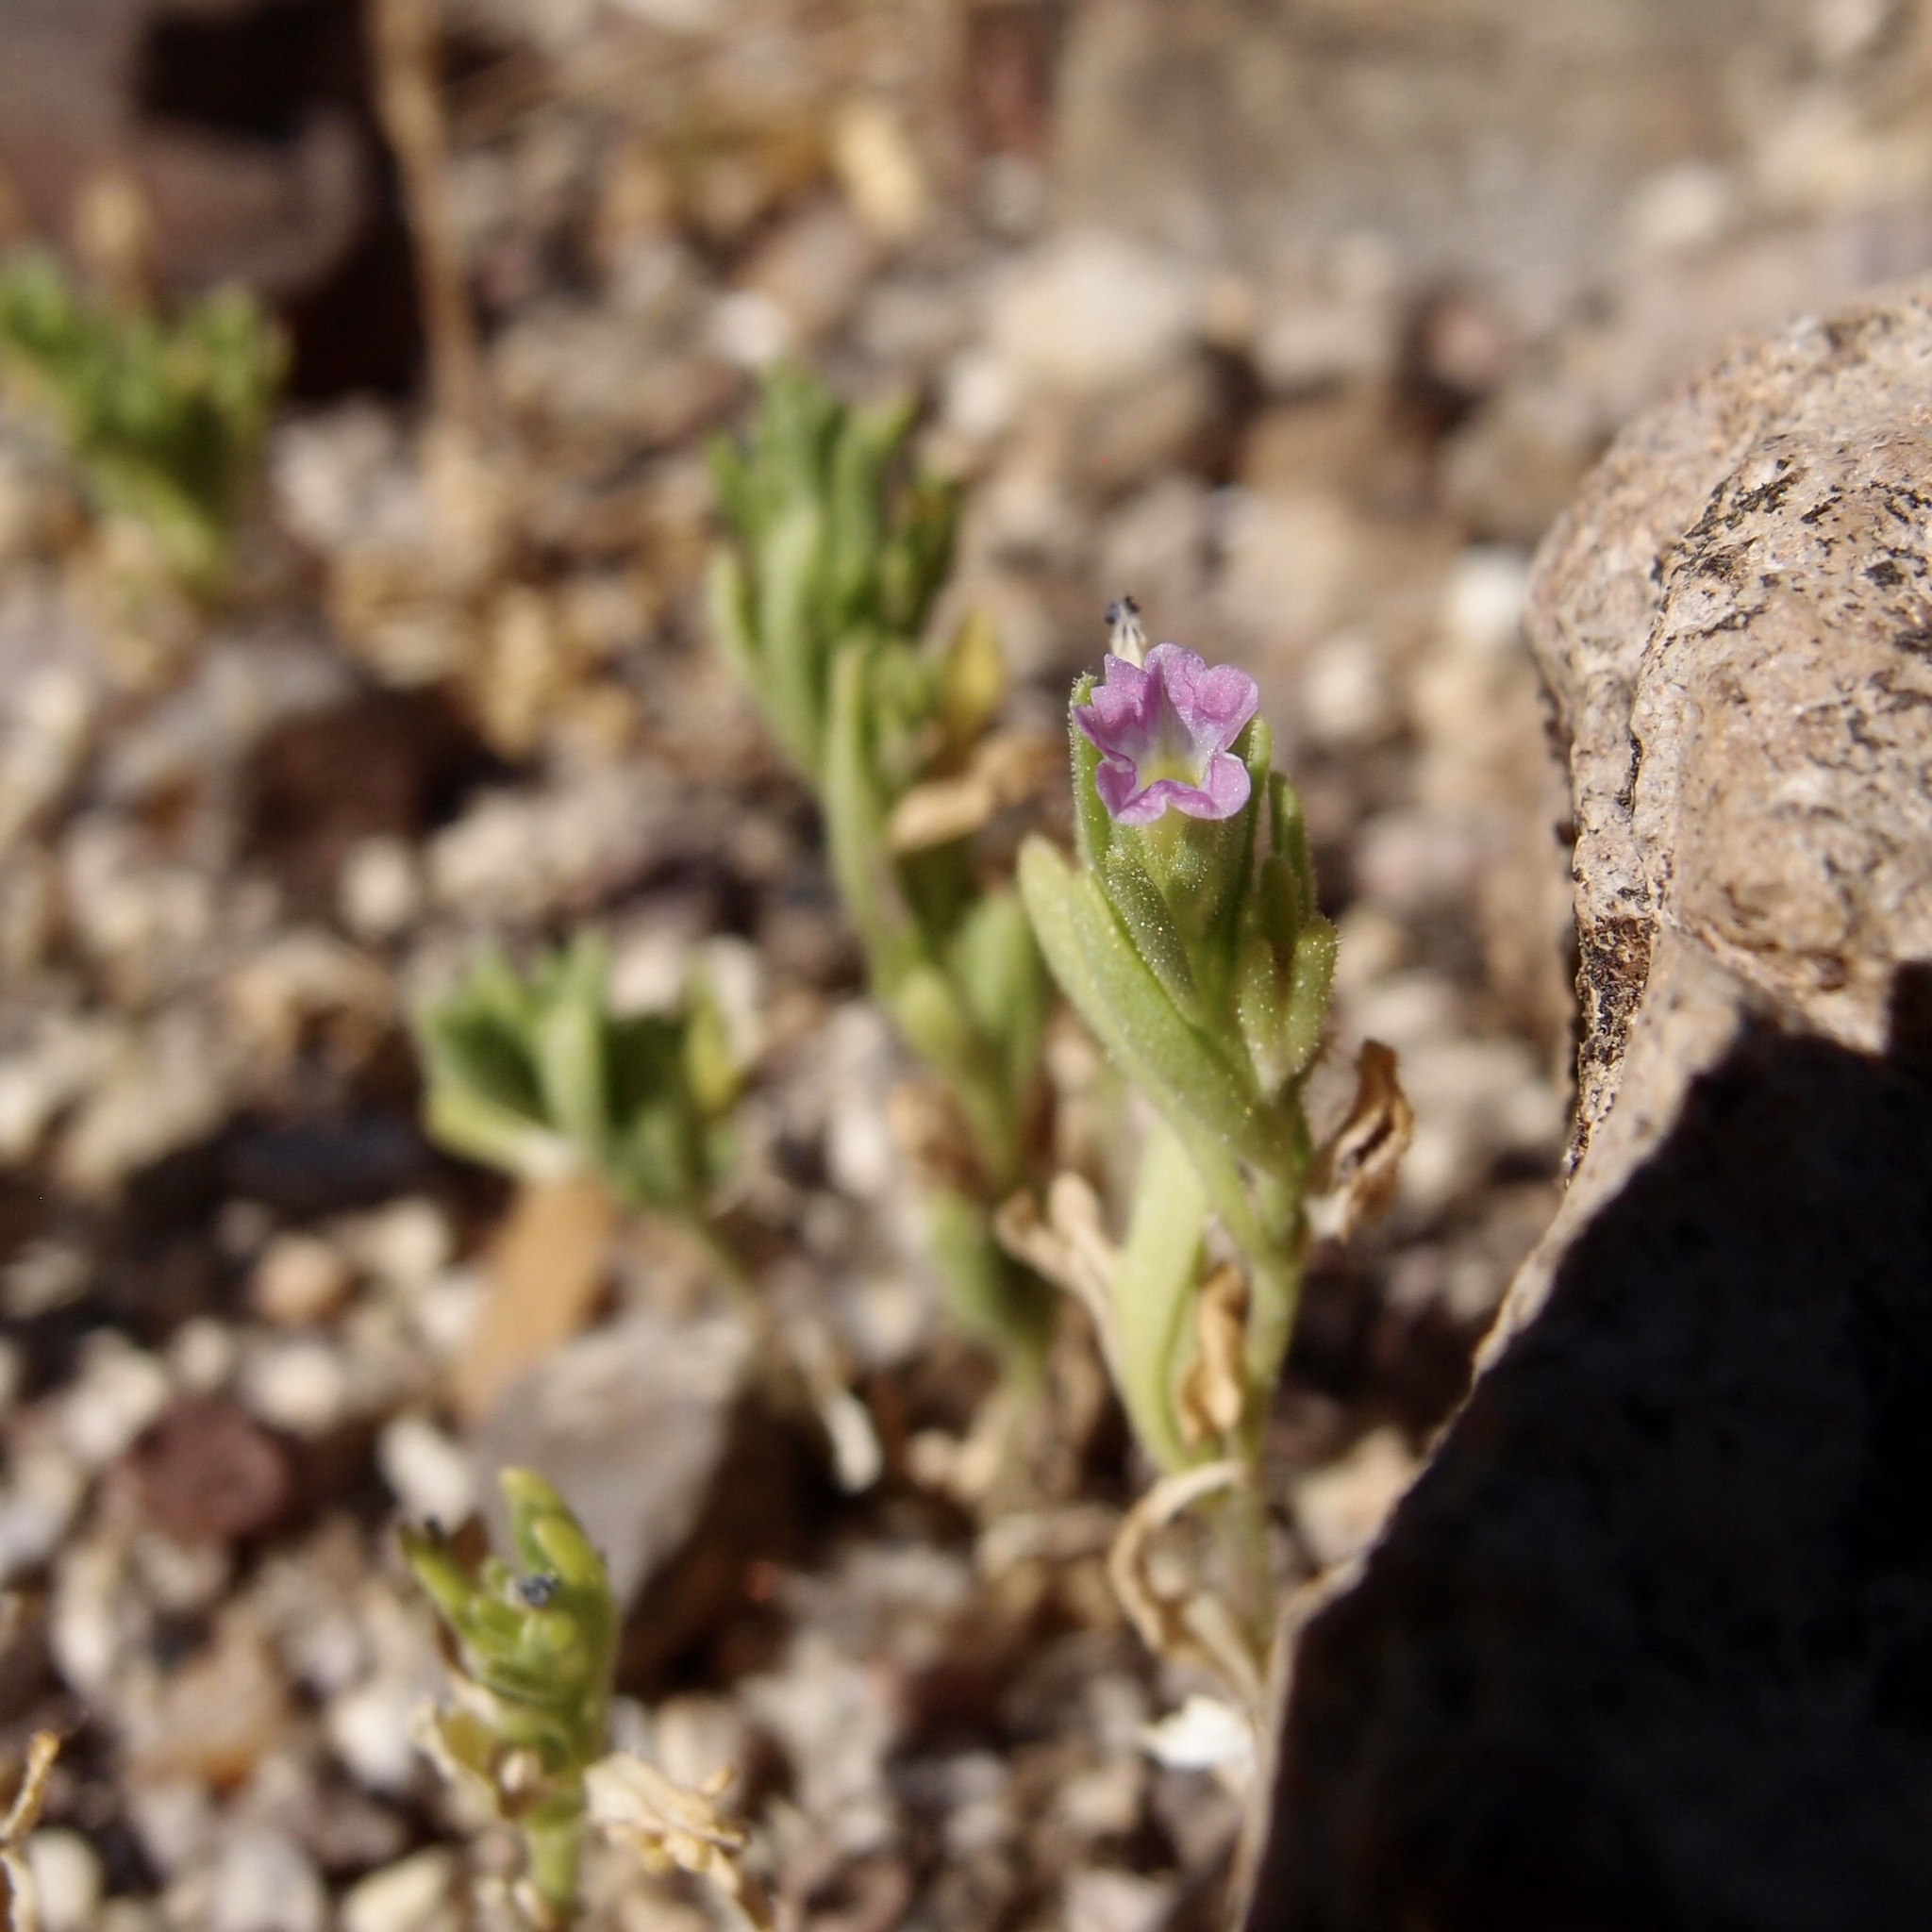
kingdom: Plantae
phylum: Tracheophyta
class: Magnoliopsida
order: Solanales
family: Solanaceae
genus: Calibrachoa
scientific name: Calibrachoa parviflora
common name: Seaside petunia
